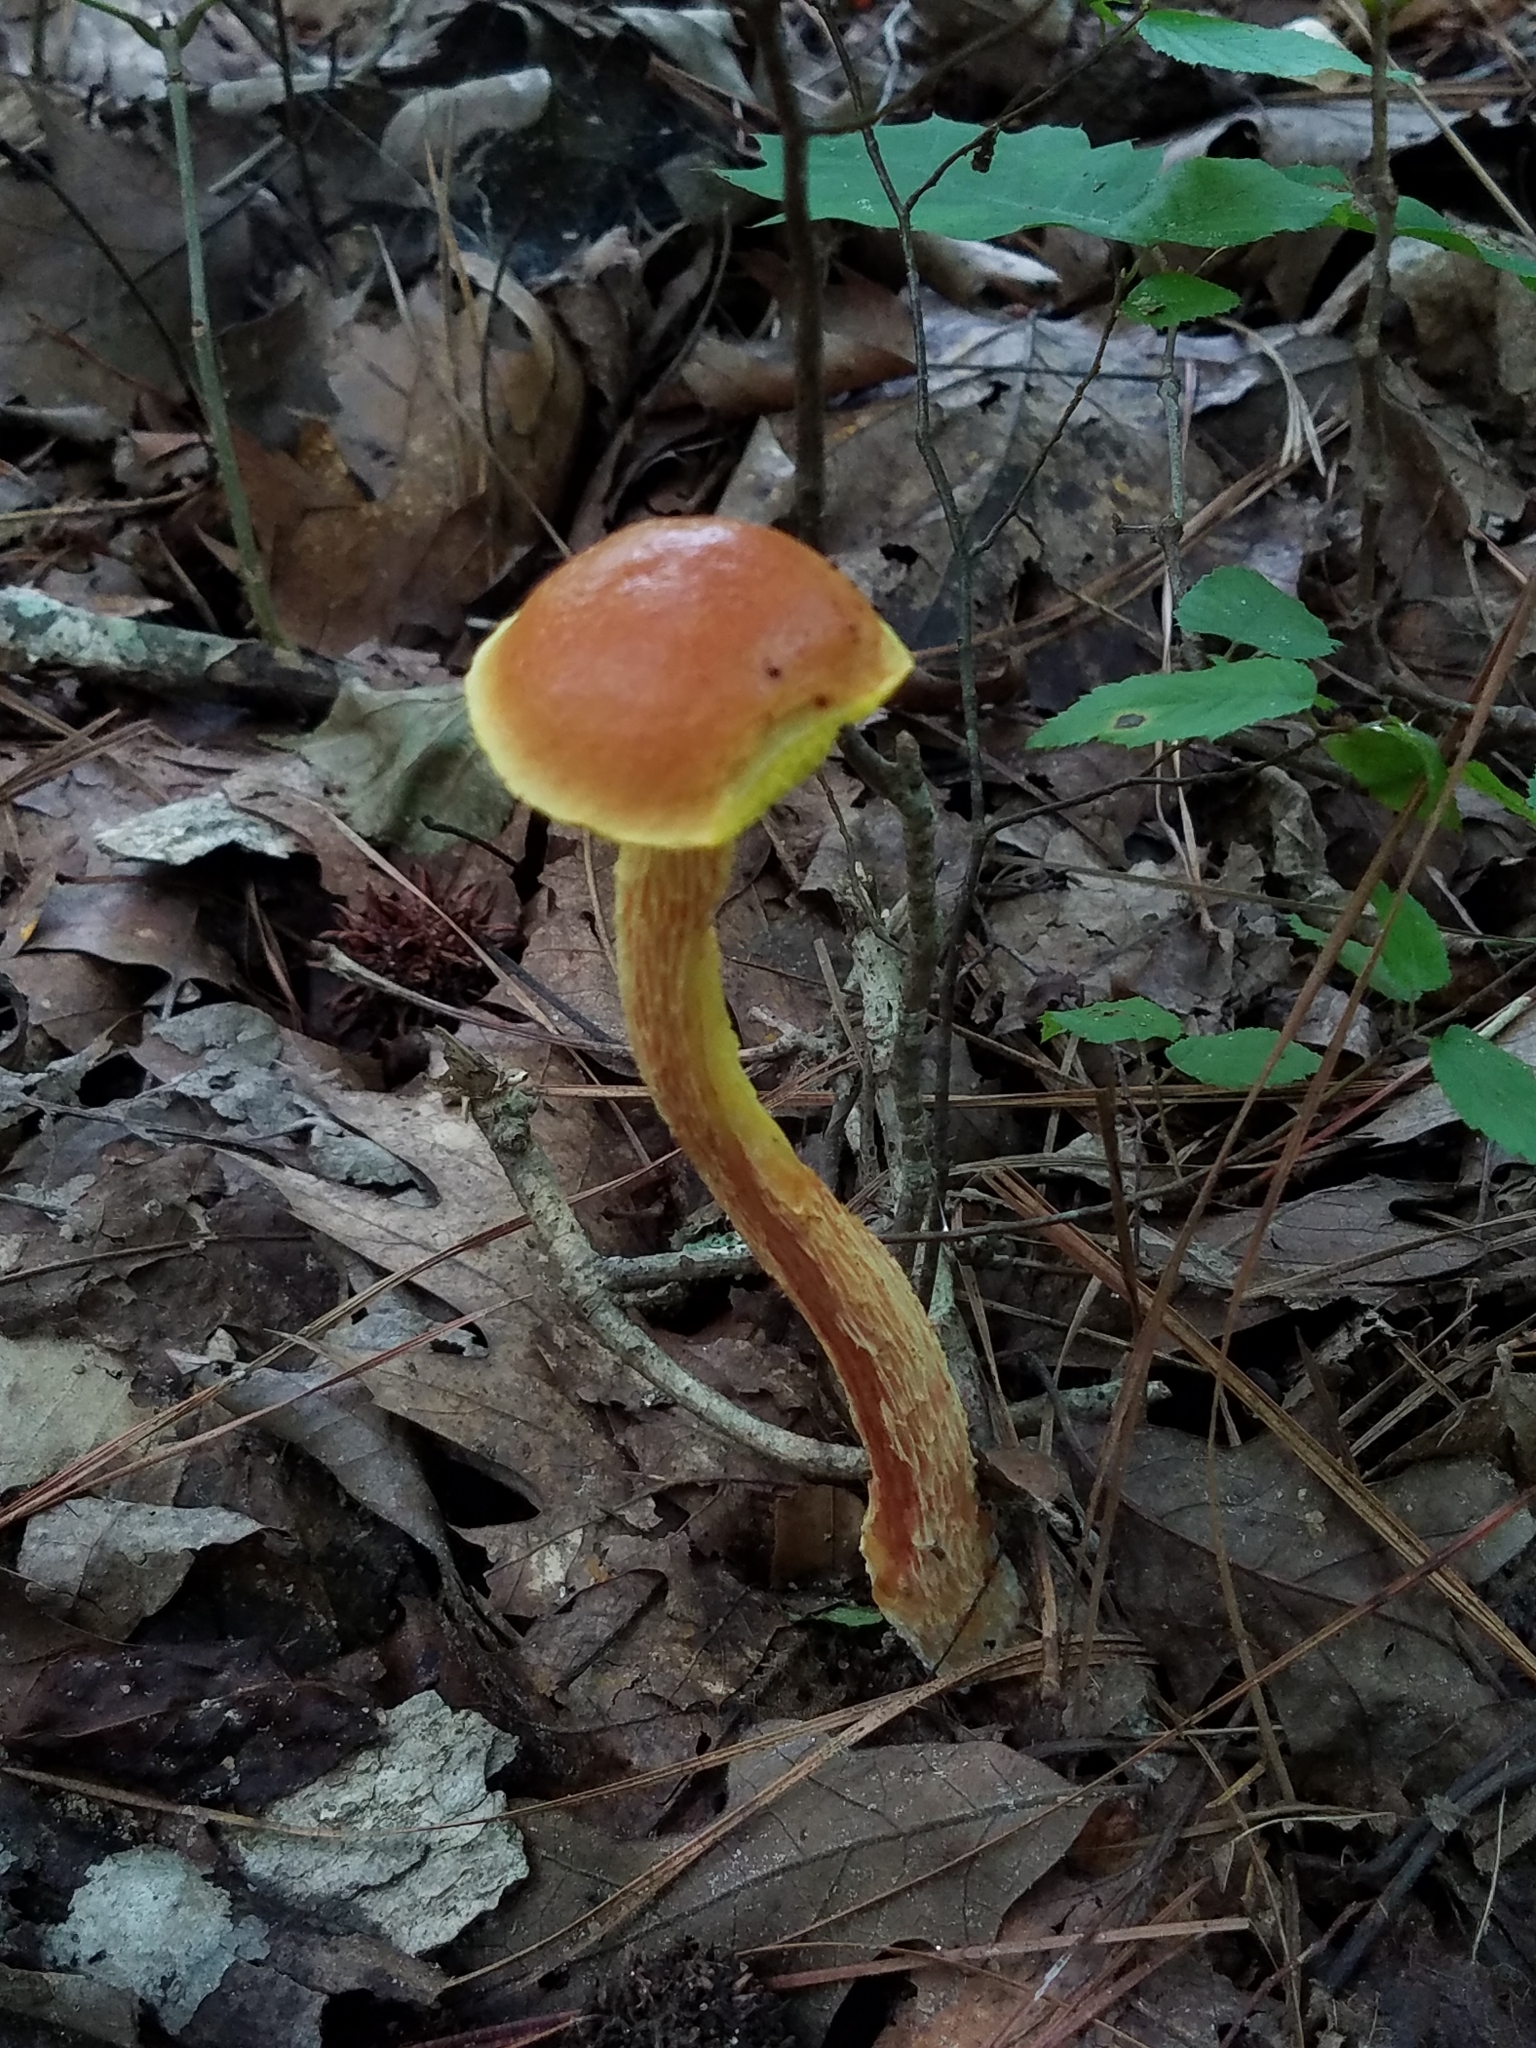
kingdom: Fungi
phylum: Basidiomycota
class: Agaricomycetes
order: Boletales
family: Boletaceae
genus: Aureoboletus
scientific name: Aureoboletus betula
